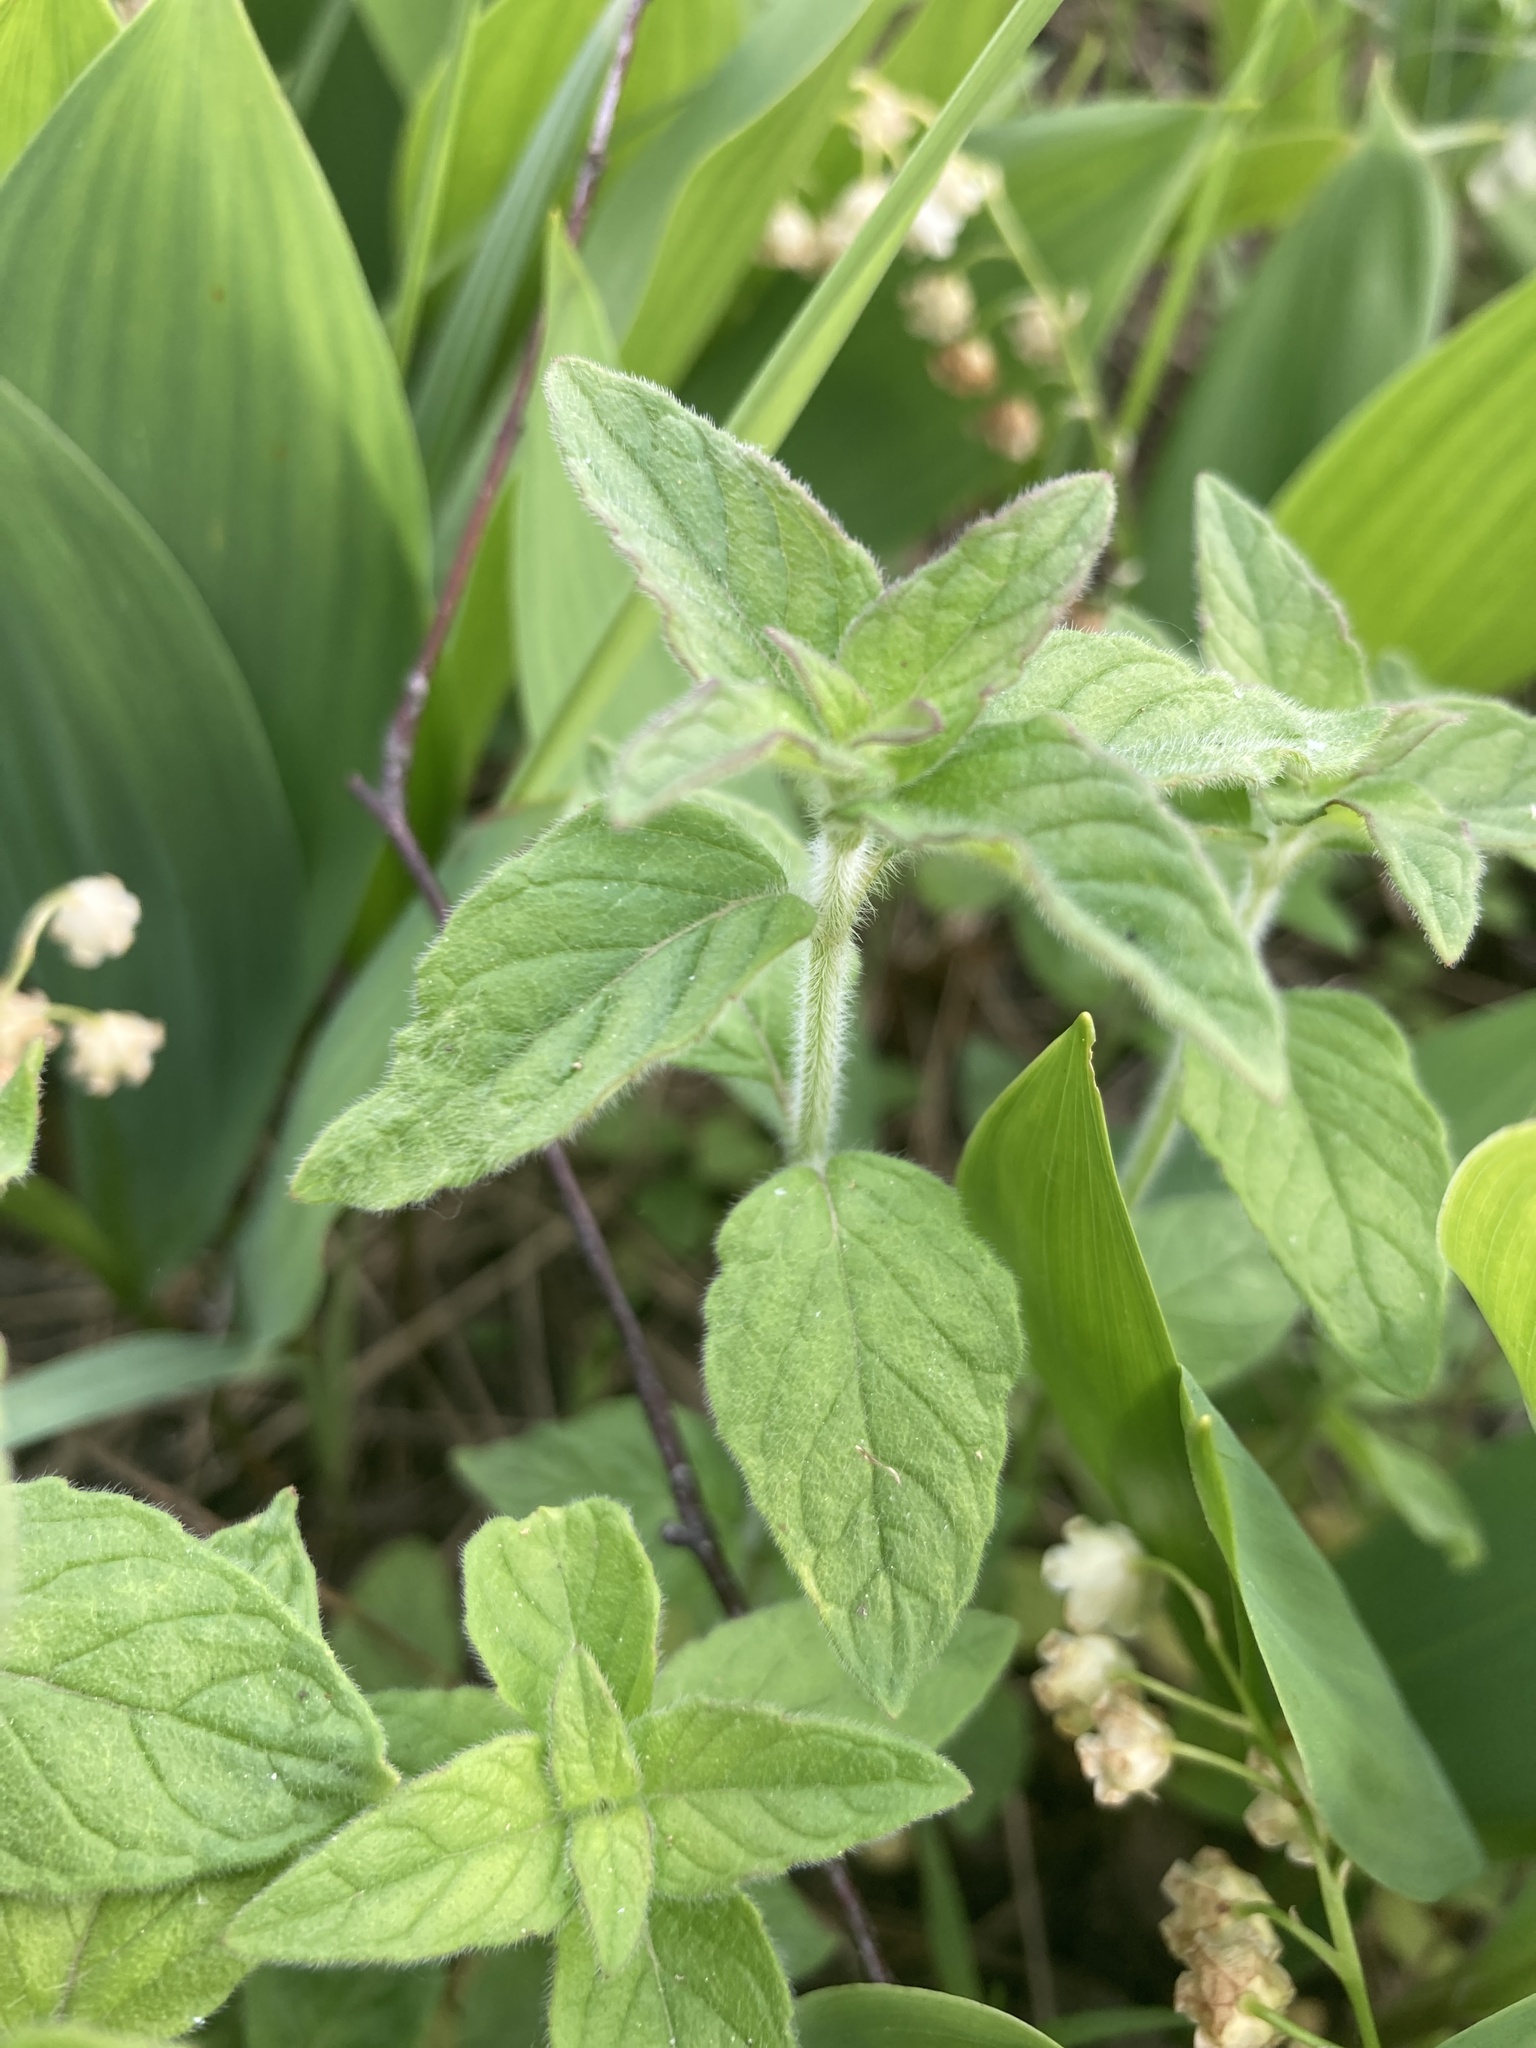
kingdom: Plantae
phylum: Tracheophyta
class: Magnoliopsida
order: Lamiales
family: Lamiaceae
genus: Clinopodium
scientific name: Clinopodium vulgare
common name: Wild basil
